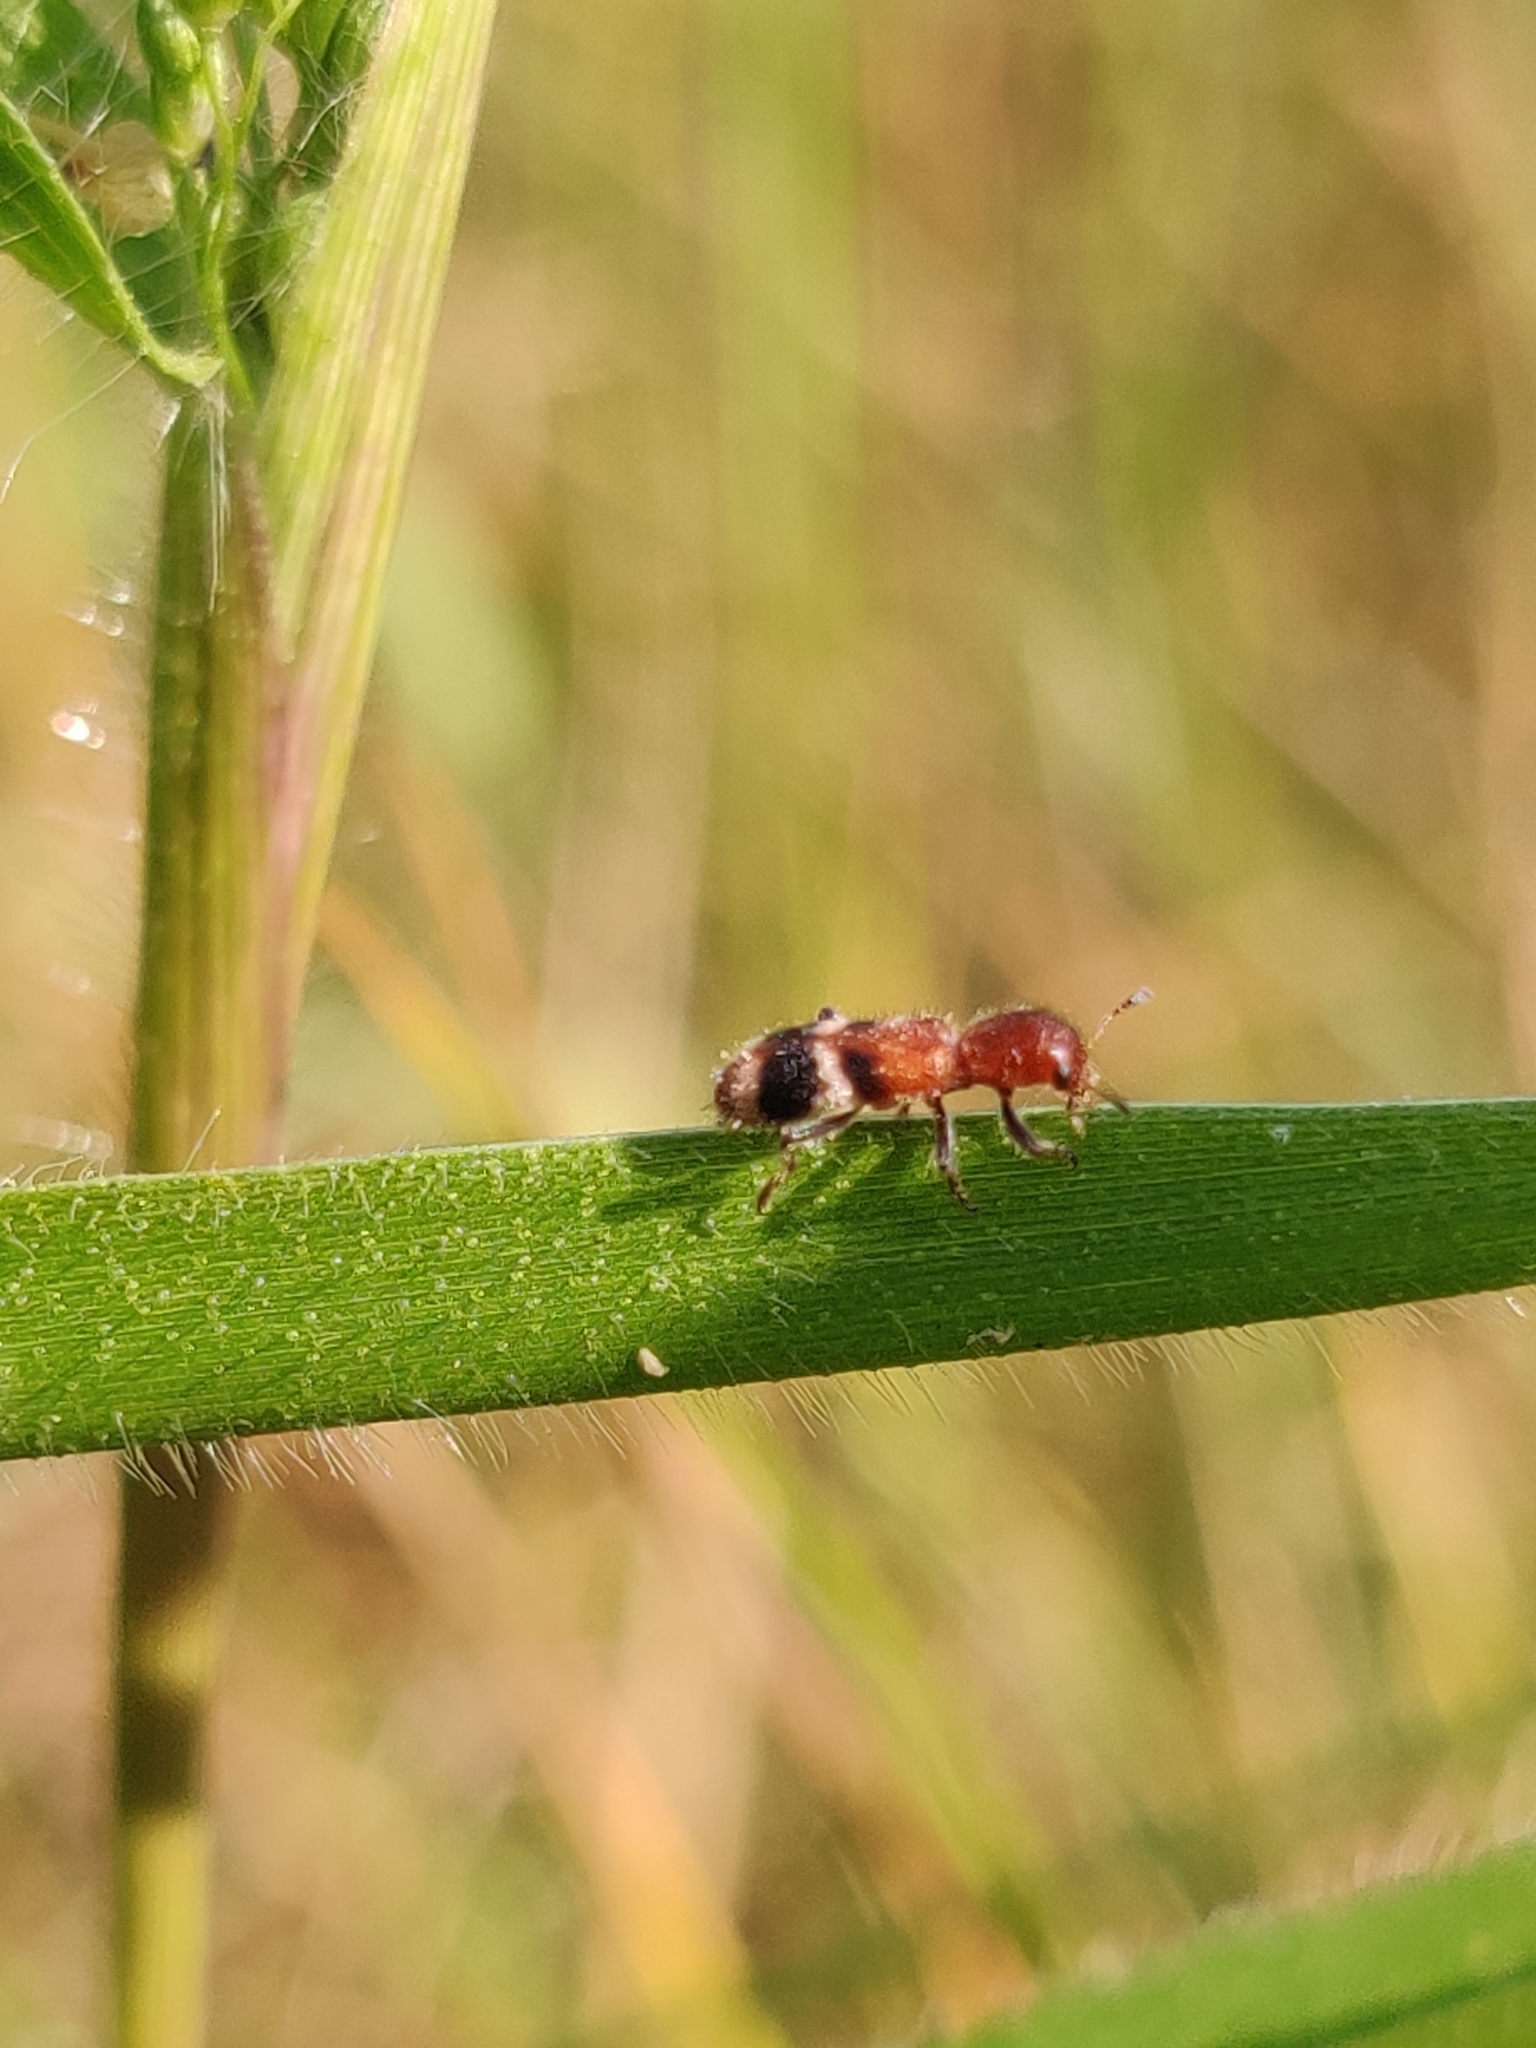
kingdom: Animalia
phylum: Arthropoda
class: Insecta
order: Coleoptera
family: Cleridae
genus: Enoclerus
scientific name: Enoclerus rosmarus
